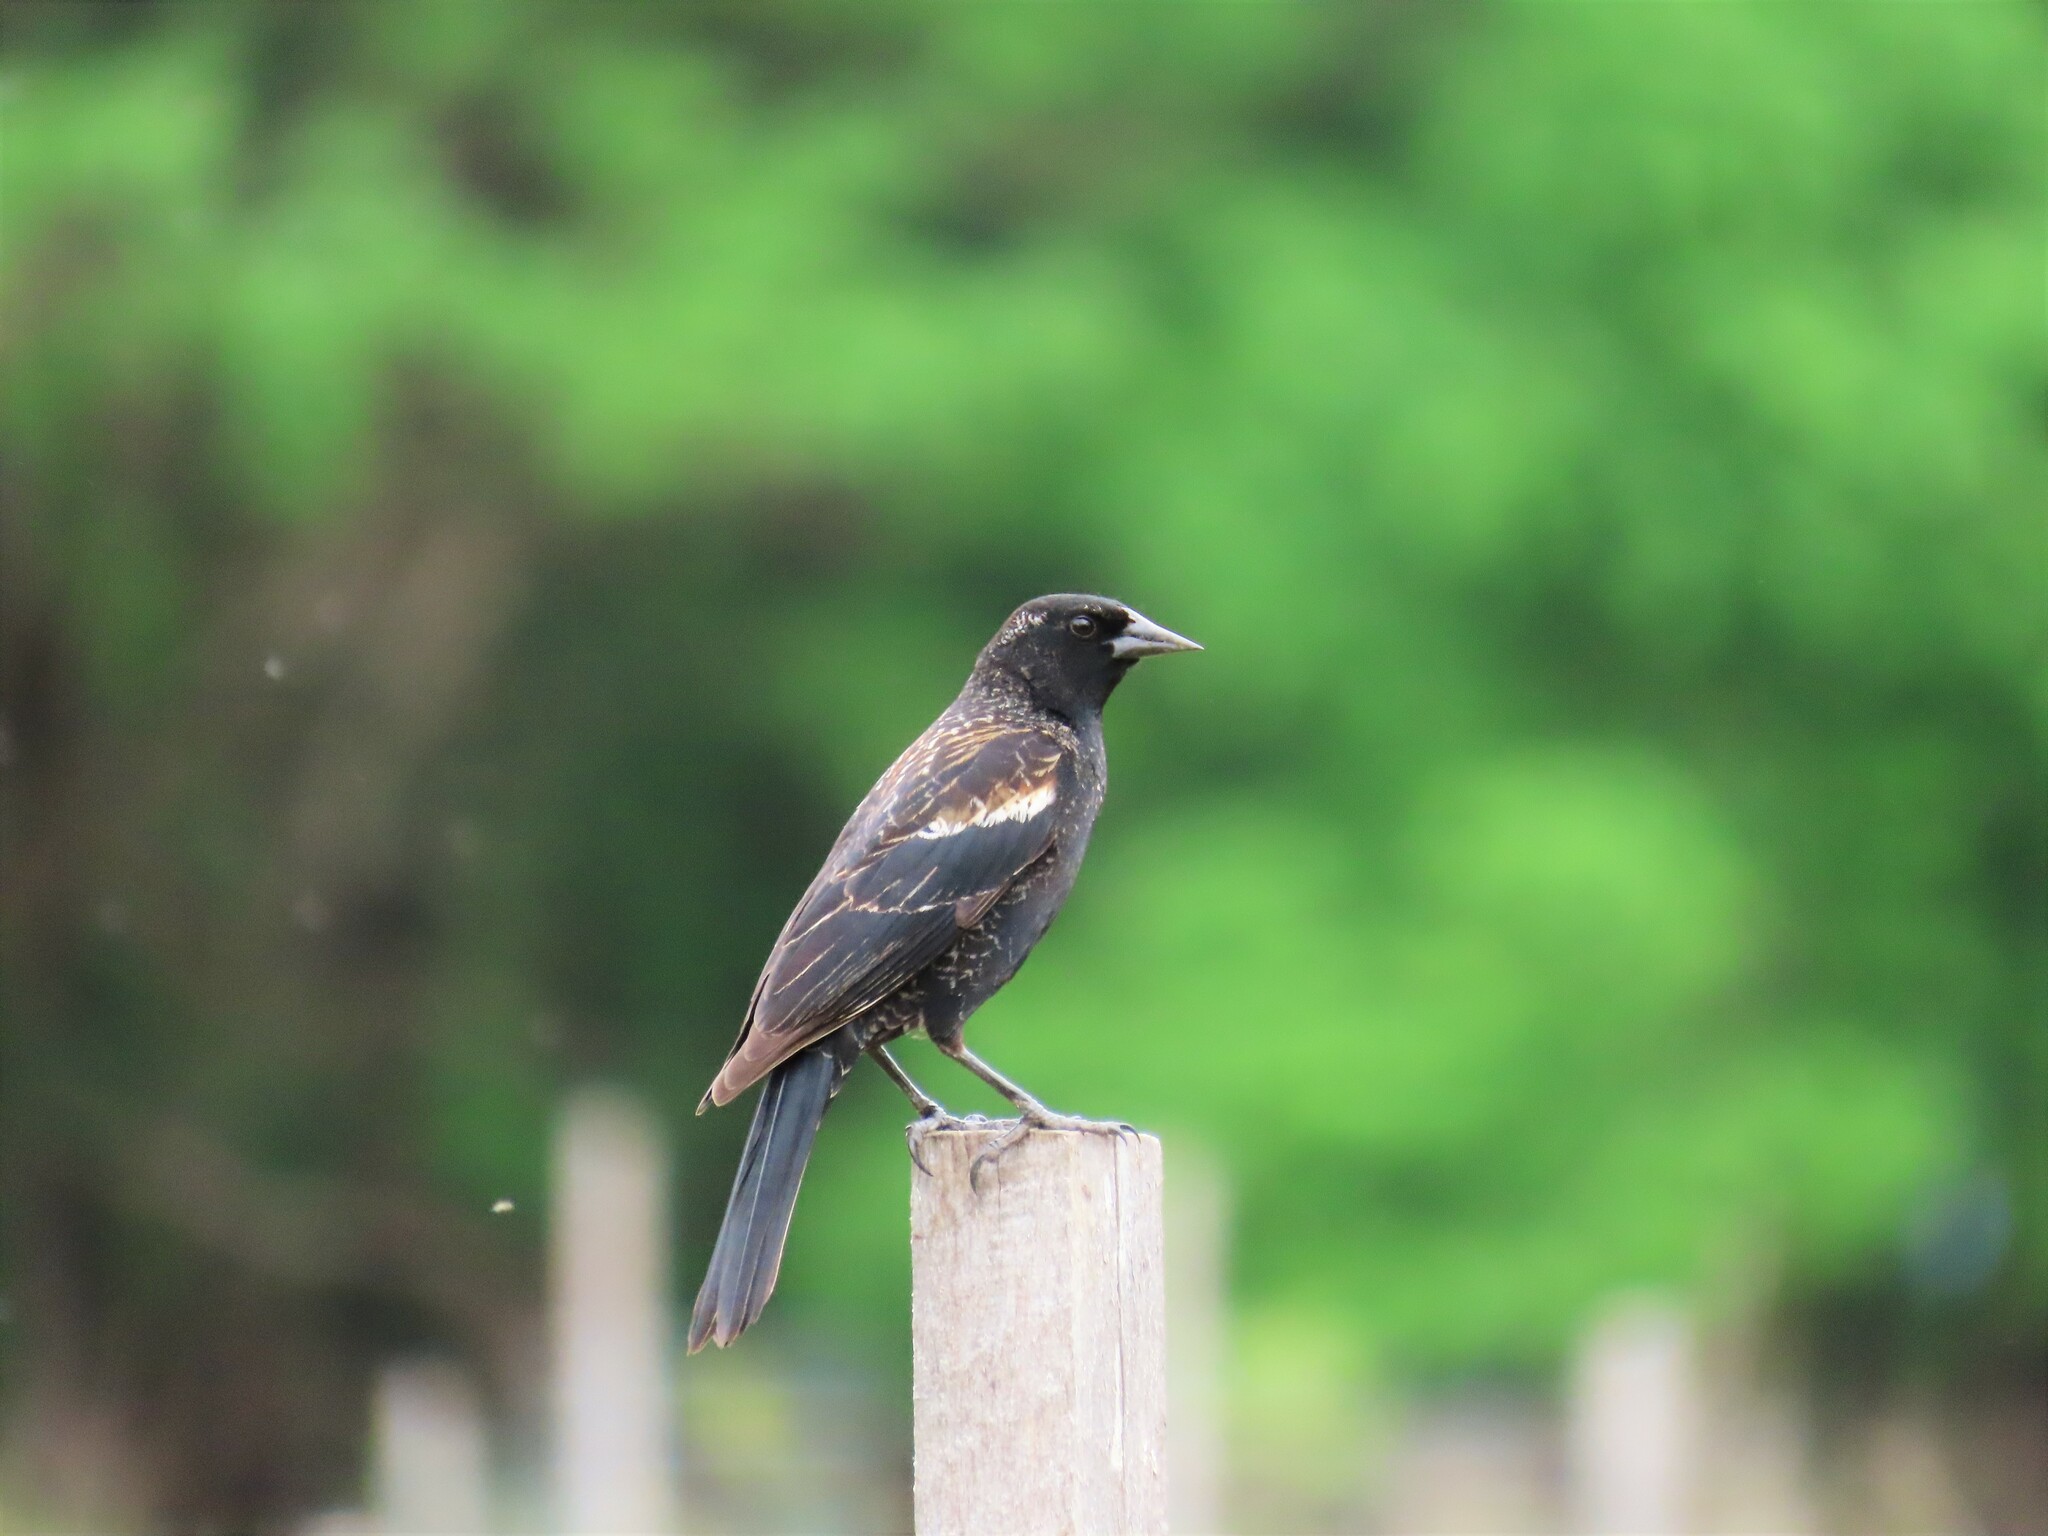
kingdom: Animalia
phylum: Chordata
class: Aves
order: Passeriformes
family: Icteridae
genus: Agelaius
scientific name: Agelaius phoeniceus
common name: Red-winged blackbird
